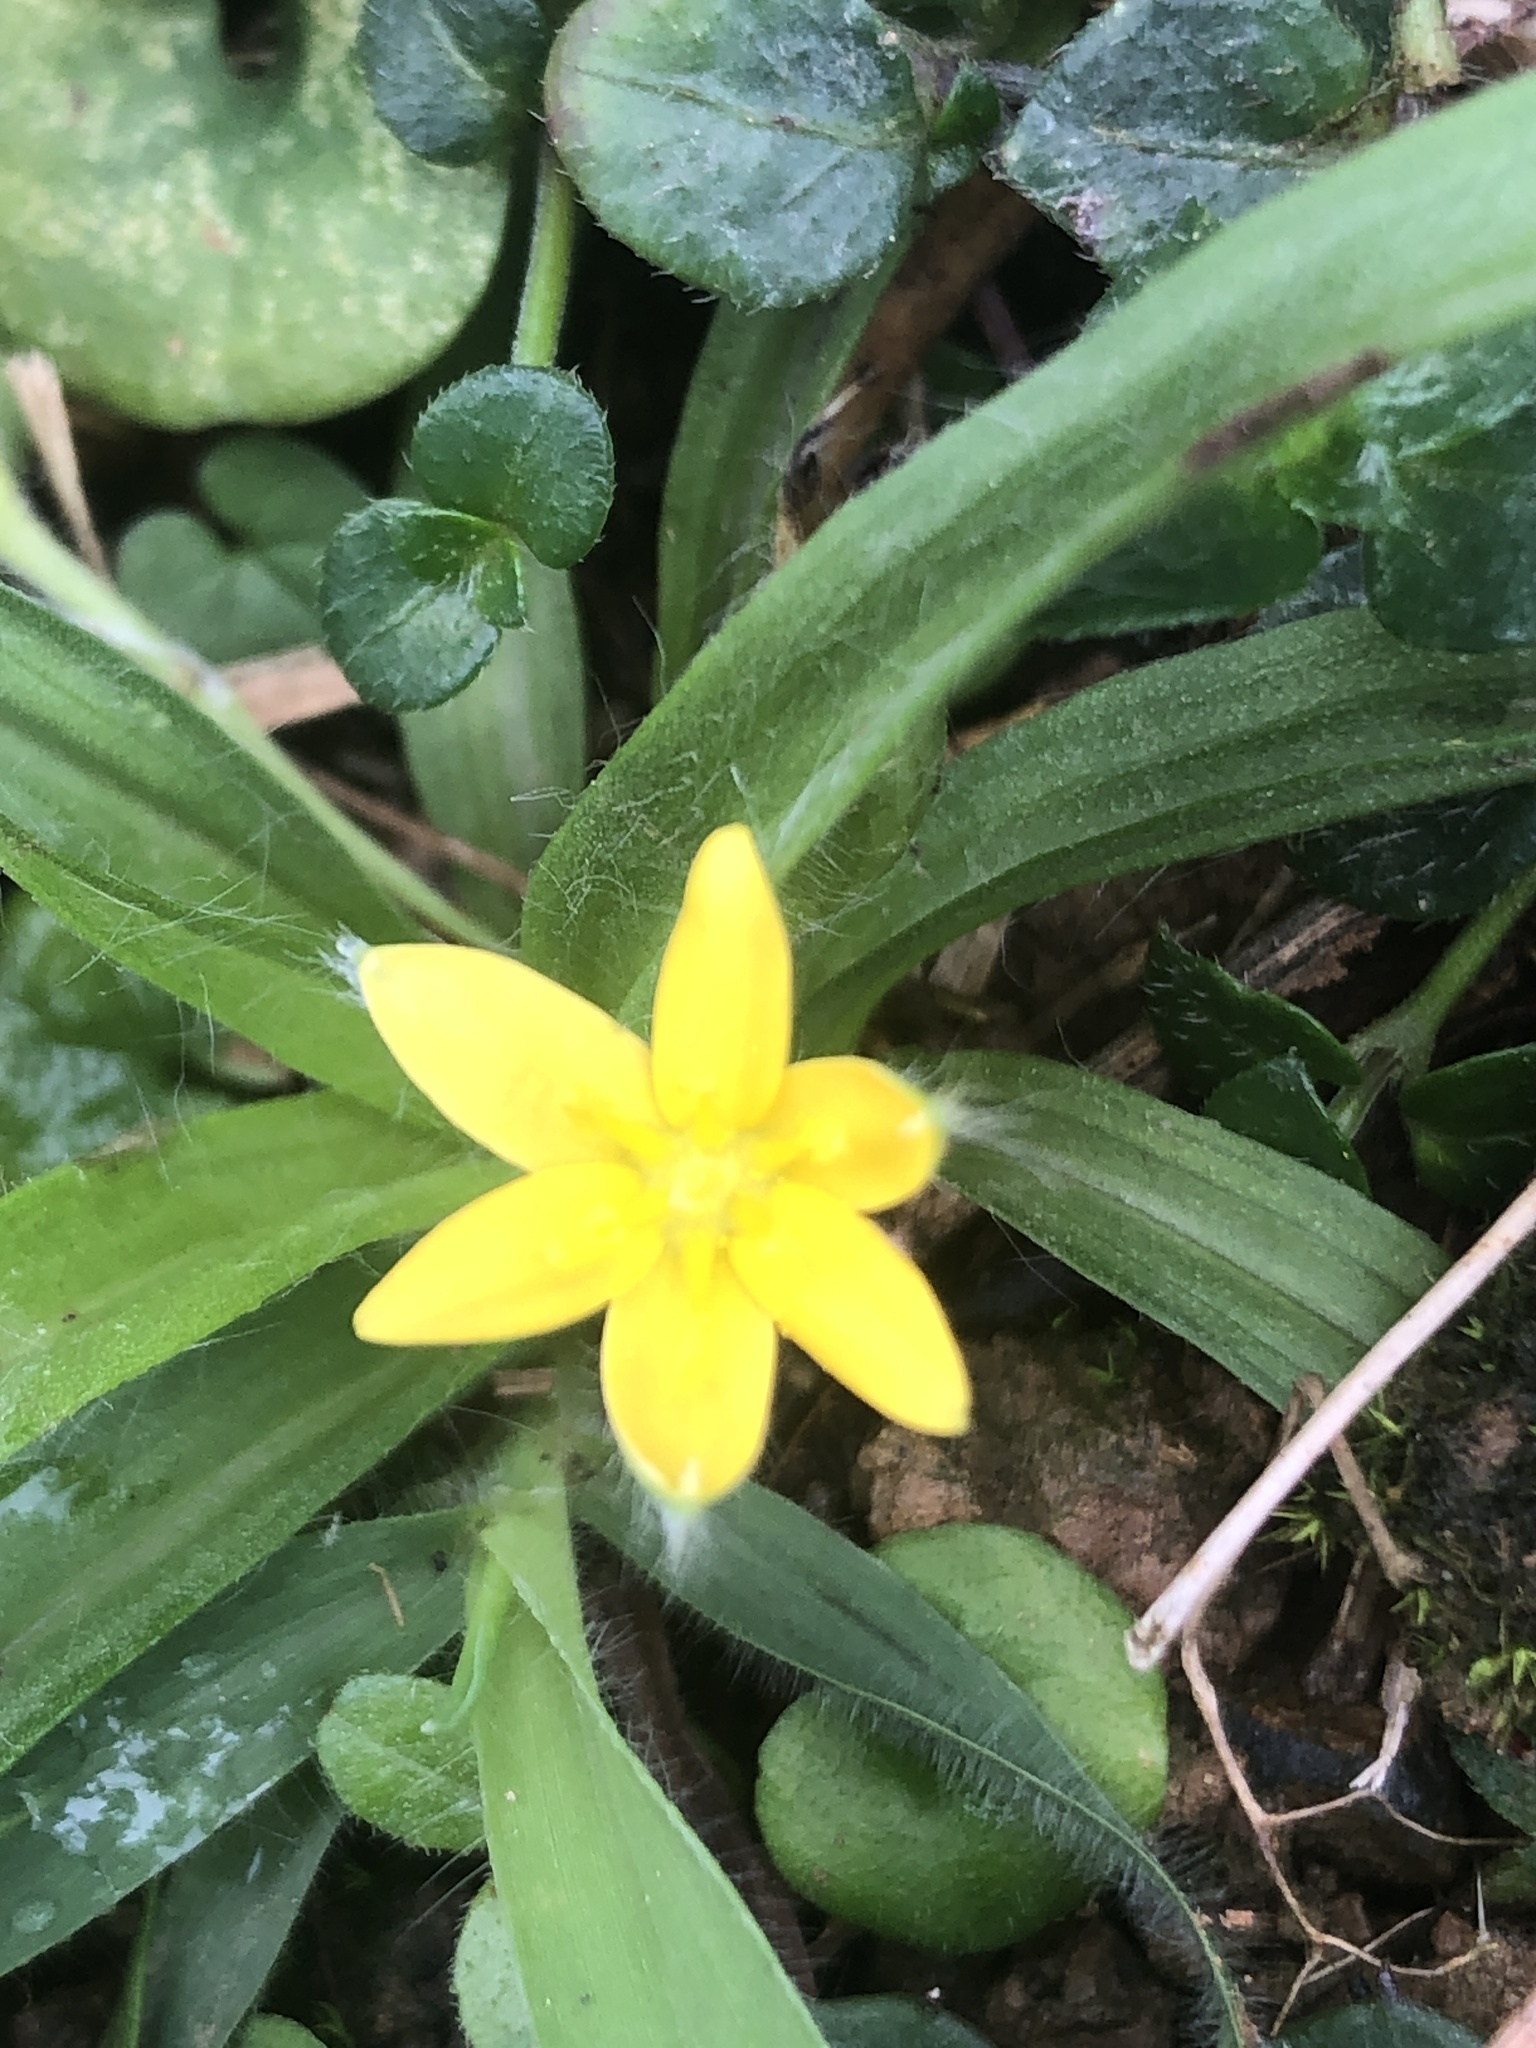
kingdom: Plantae
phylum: Tracheophyta
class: Liliopsida
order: Asparagales
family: Hypoxidaceae
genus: Hypoxis
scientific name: Hypoxis aurea
